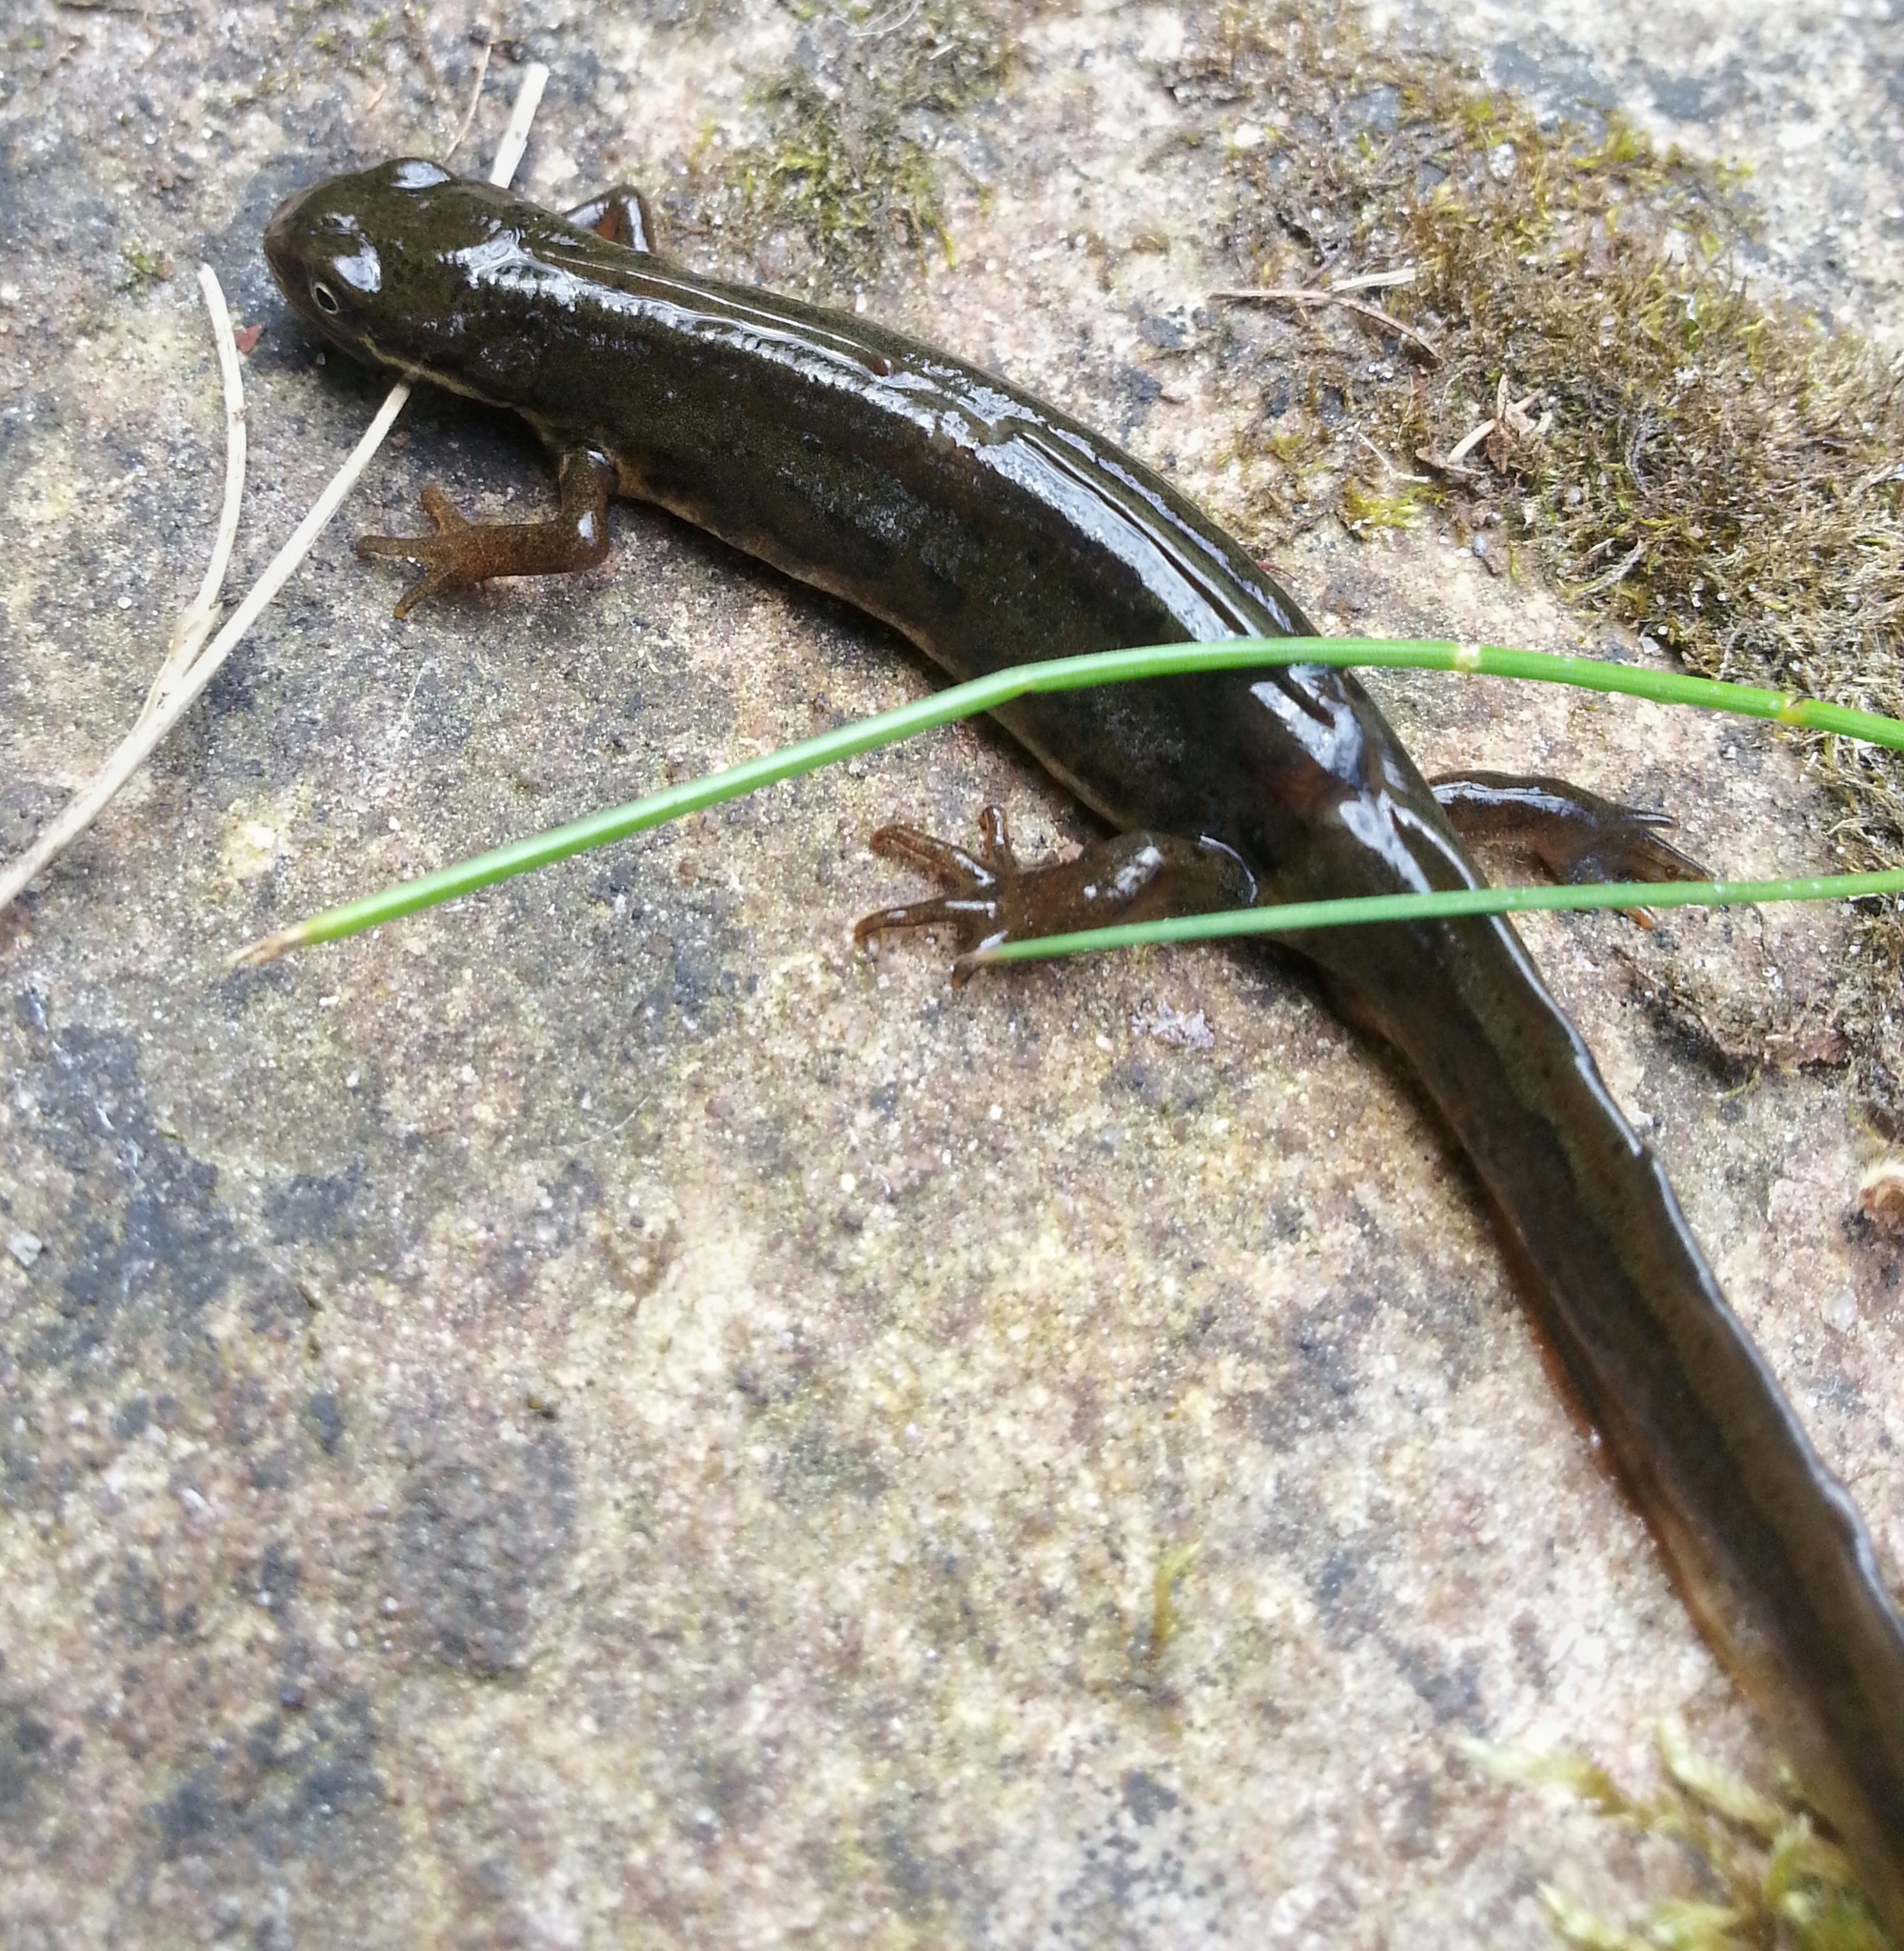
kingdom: Animalia
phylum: Chordata
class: Amphibia
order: Caudata
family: Salamandridae
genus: Lissotriton
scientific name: Lissotriton vulgaris
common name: Smooth newt
